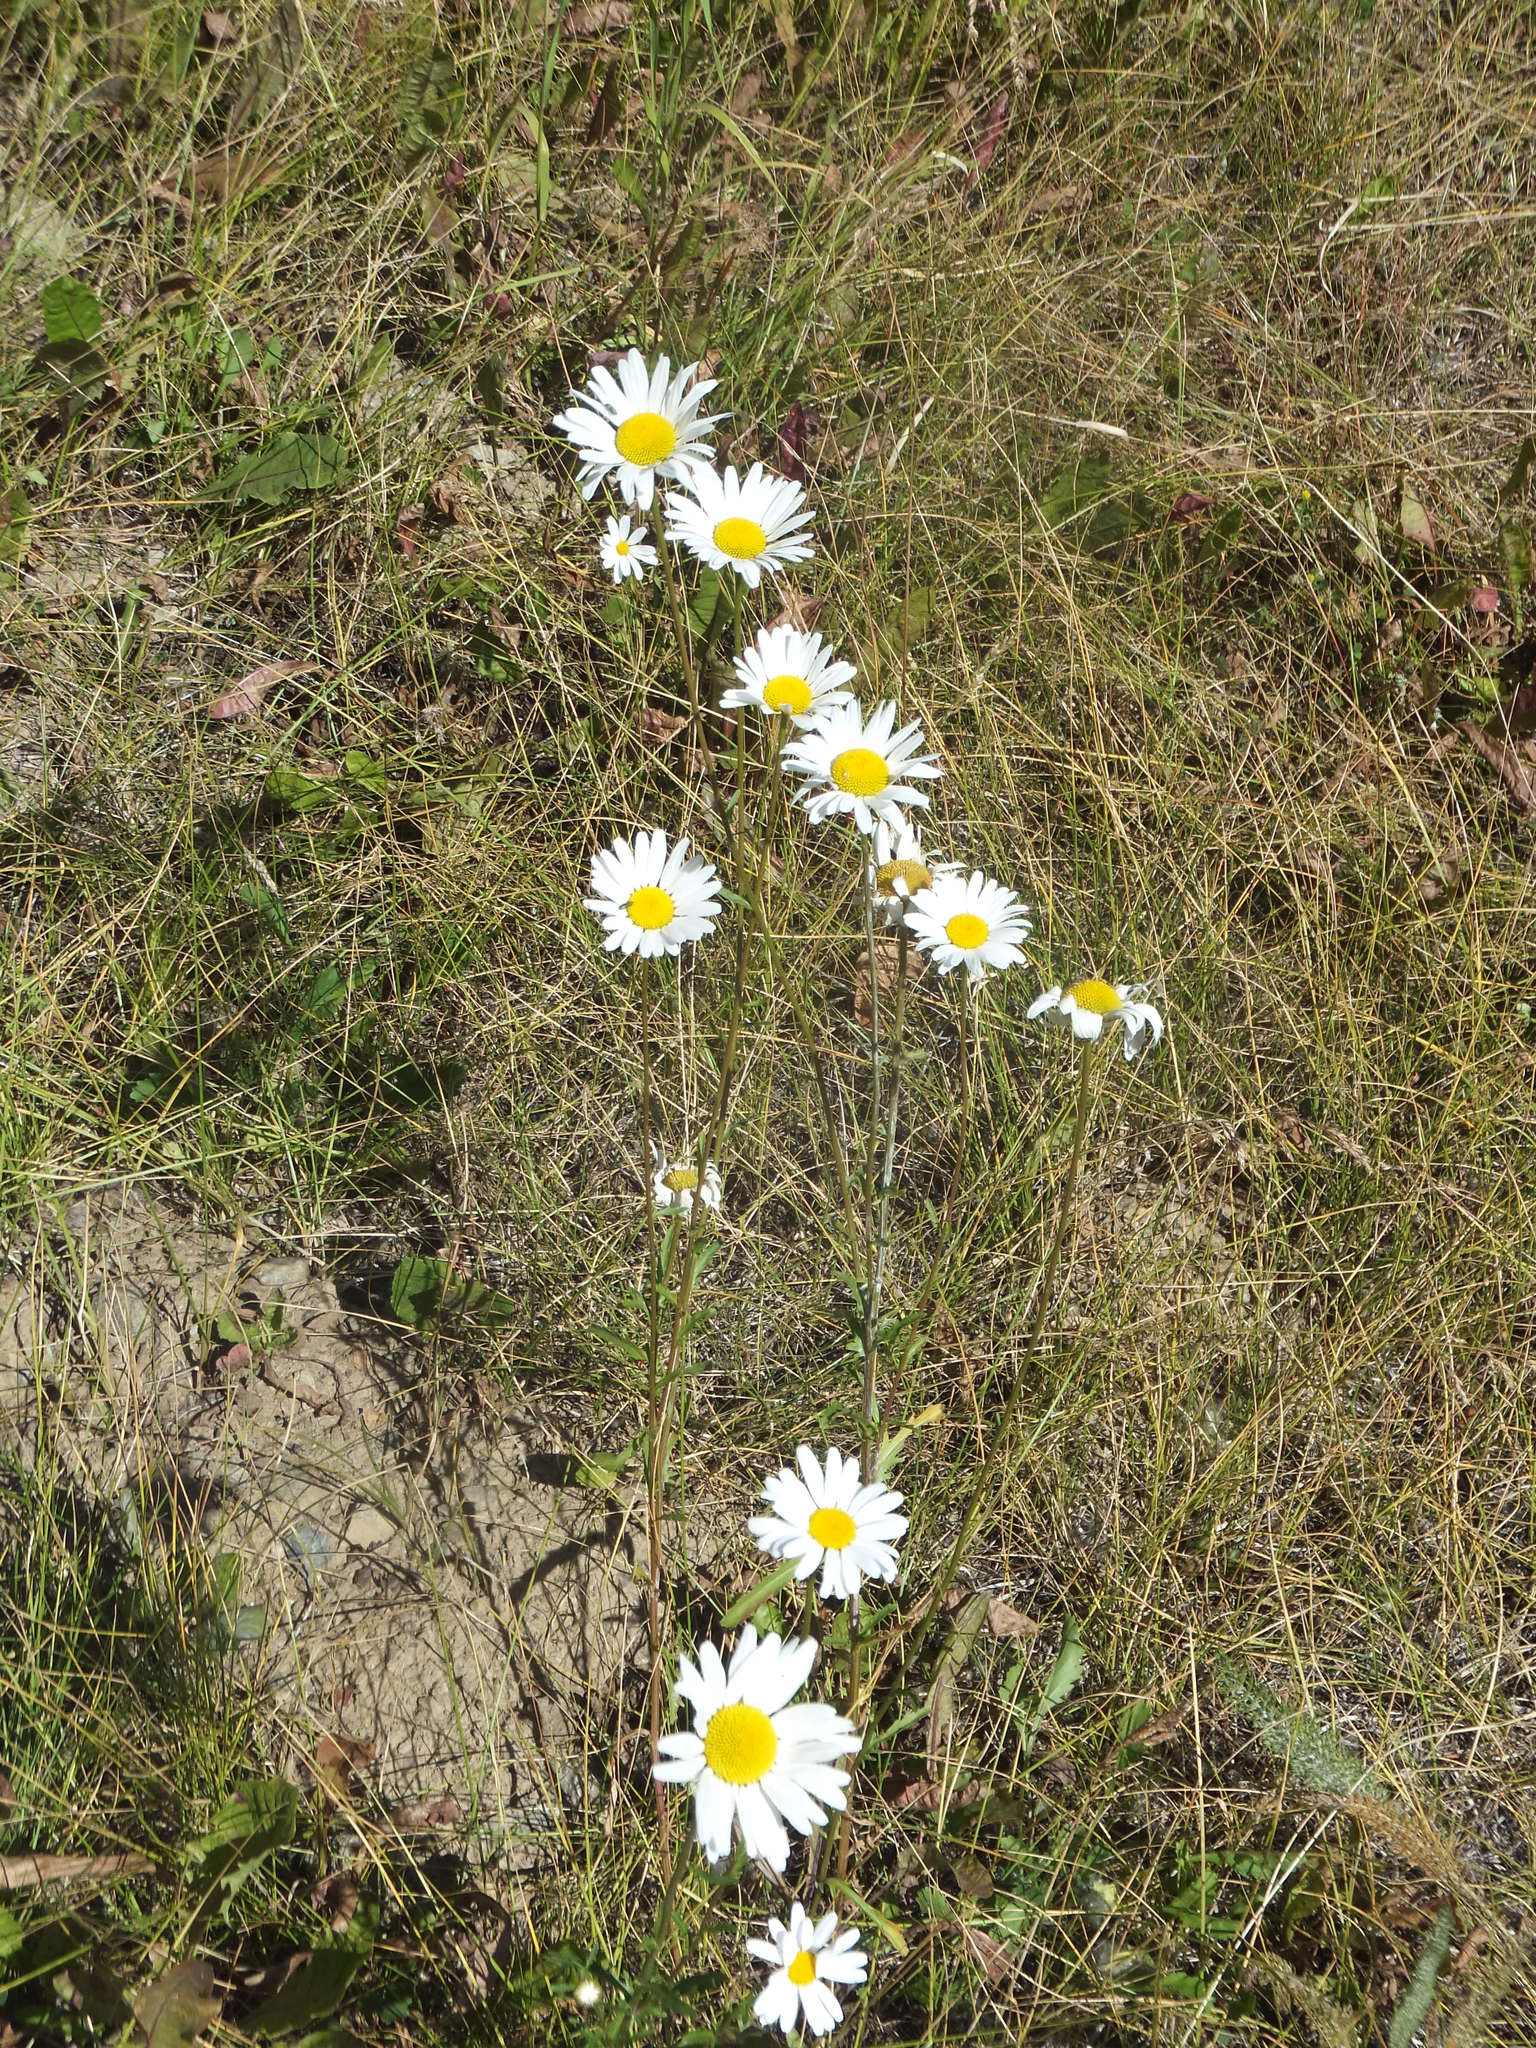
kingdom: Plantae
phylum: Tracheophyta
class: Magnoliopsida
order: Asterales
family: Asteraceae
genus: Leucanthemum
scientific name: Leucanthemum vulgare
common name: Oxeye daisy
